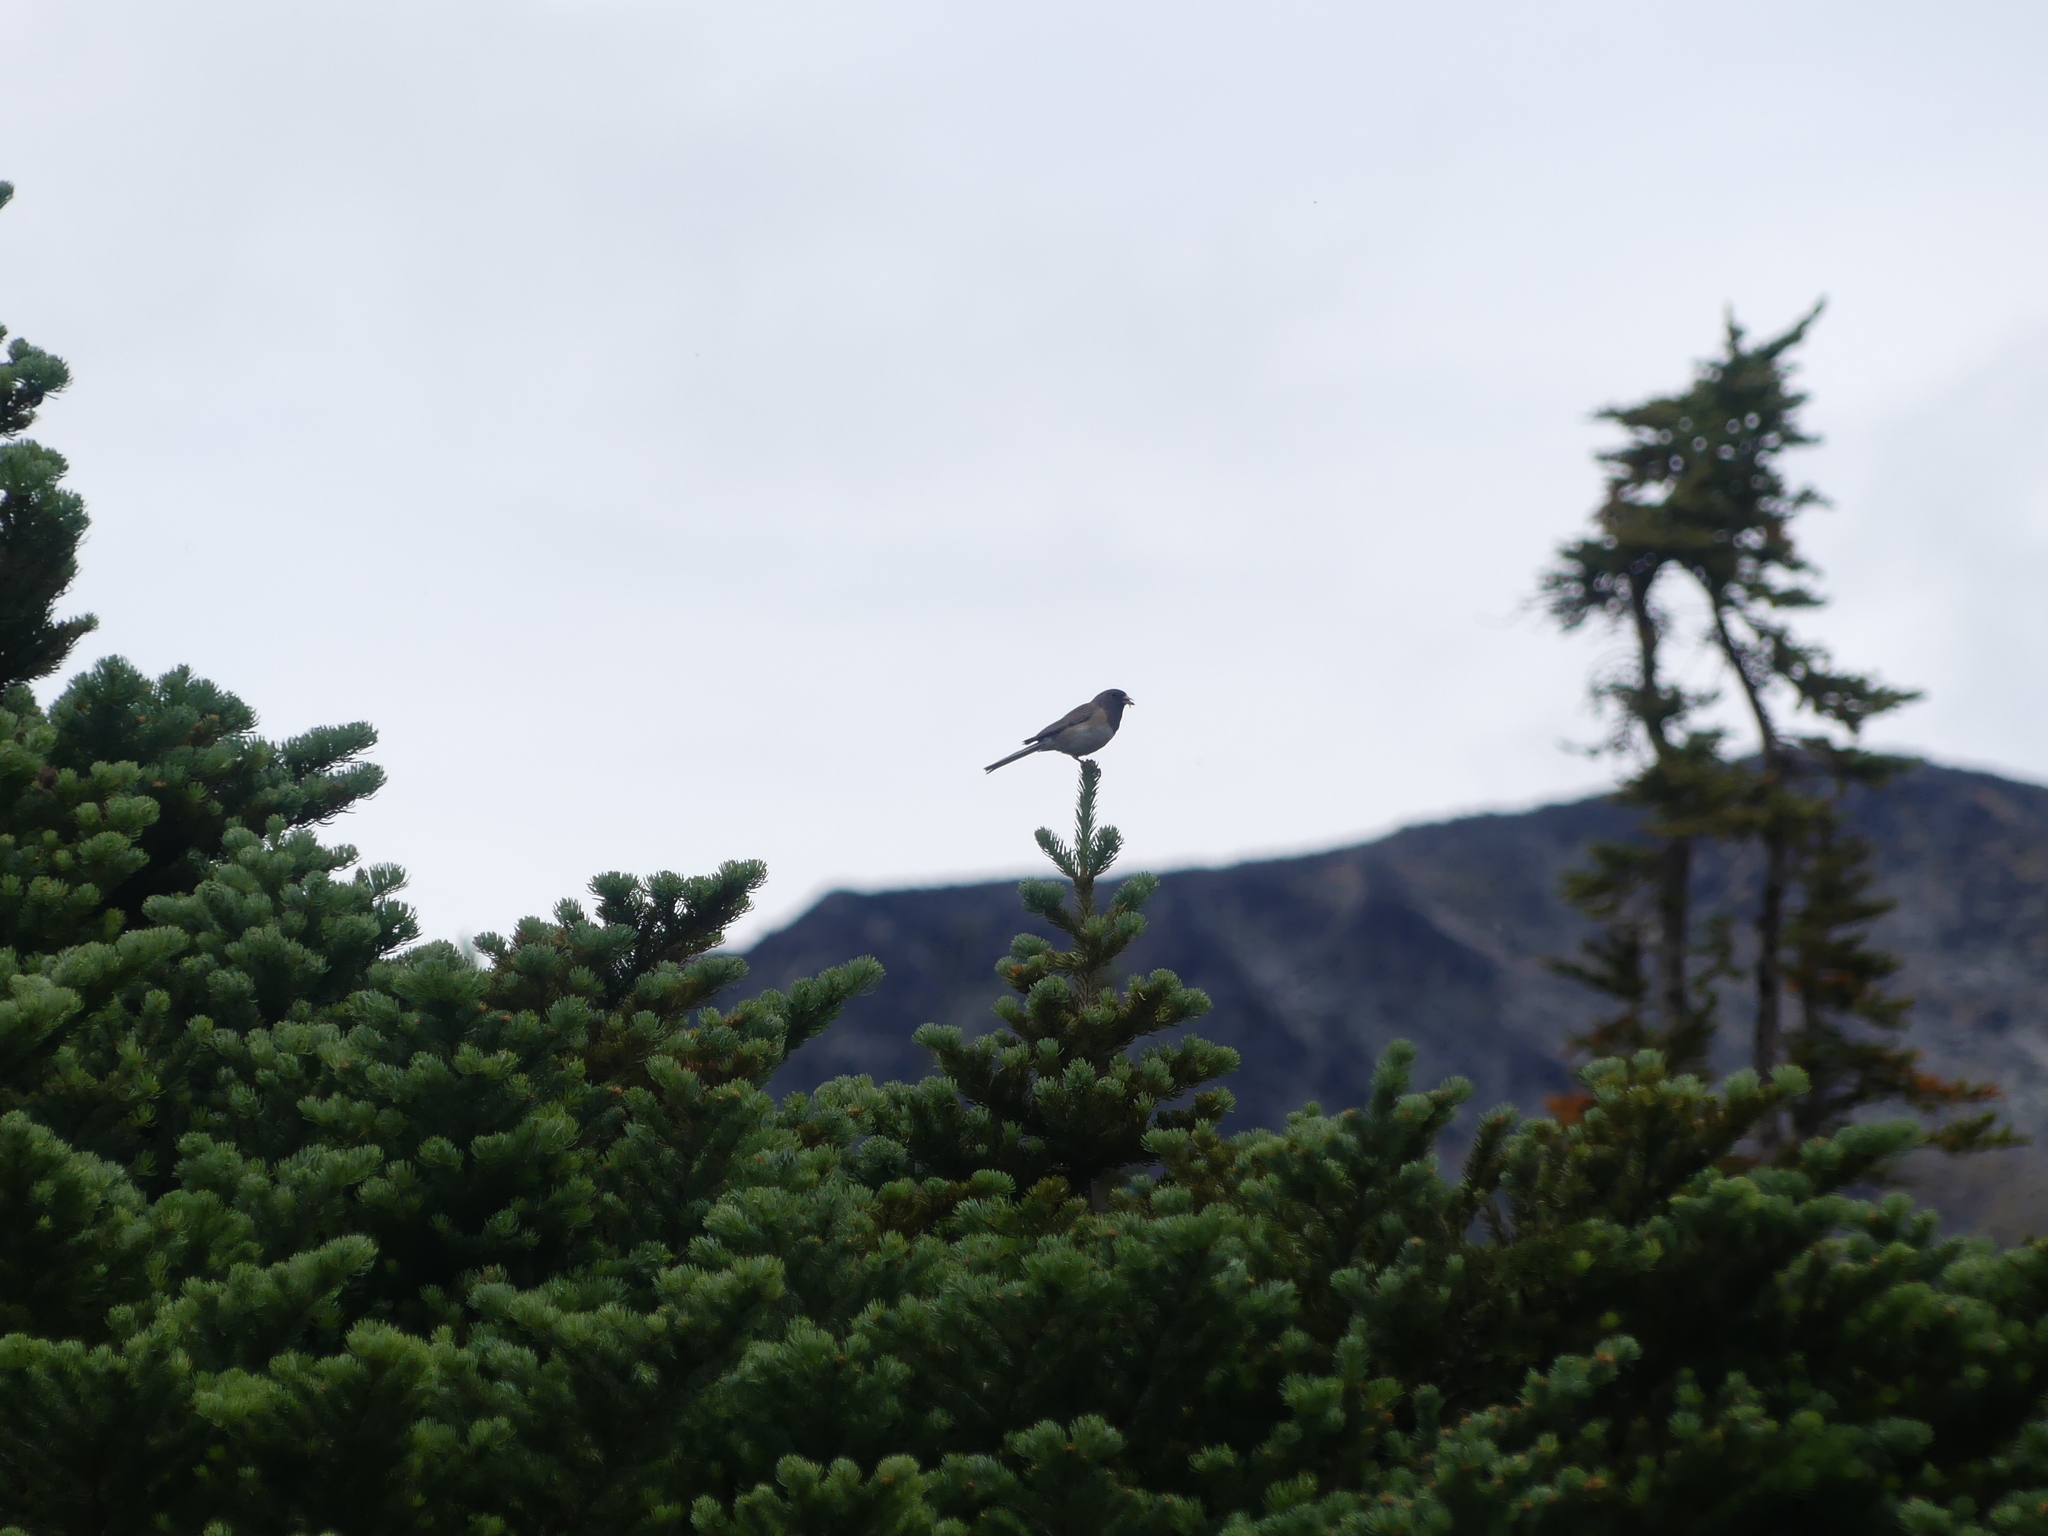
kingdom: Animalia
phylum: Chordata
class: Aves
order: Passeriformes
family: Passerellidae
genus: Junco
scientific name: Junco hyemalis
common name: Dark-eyed junco
